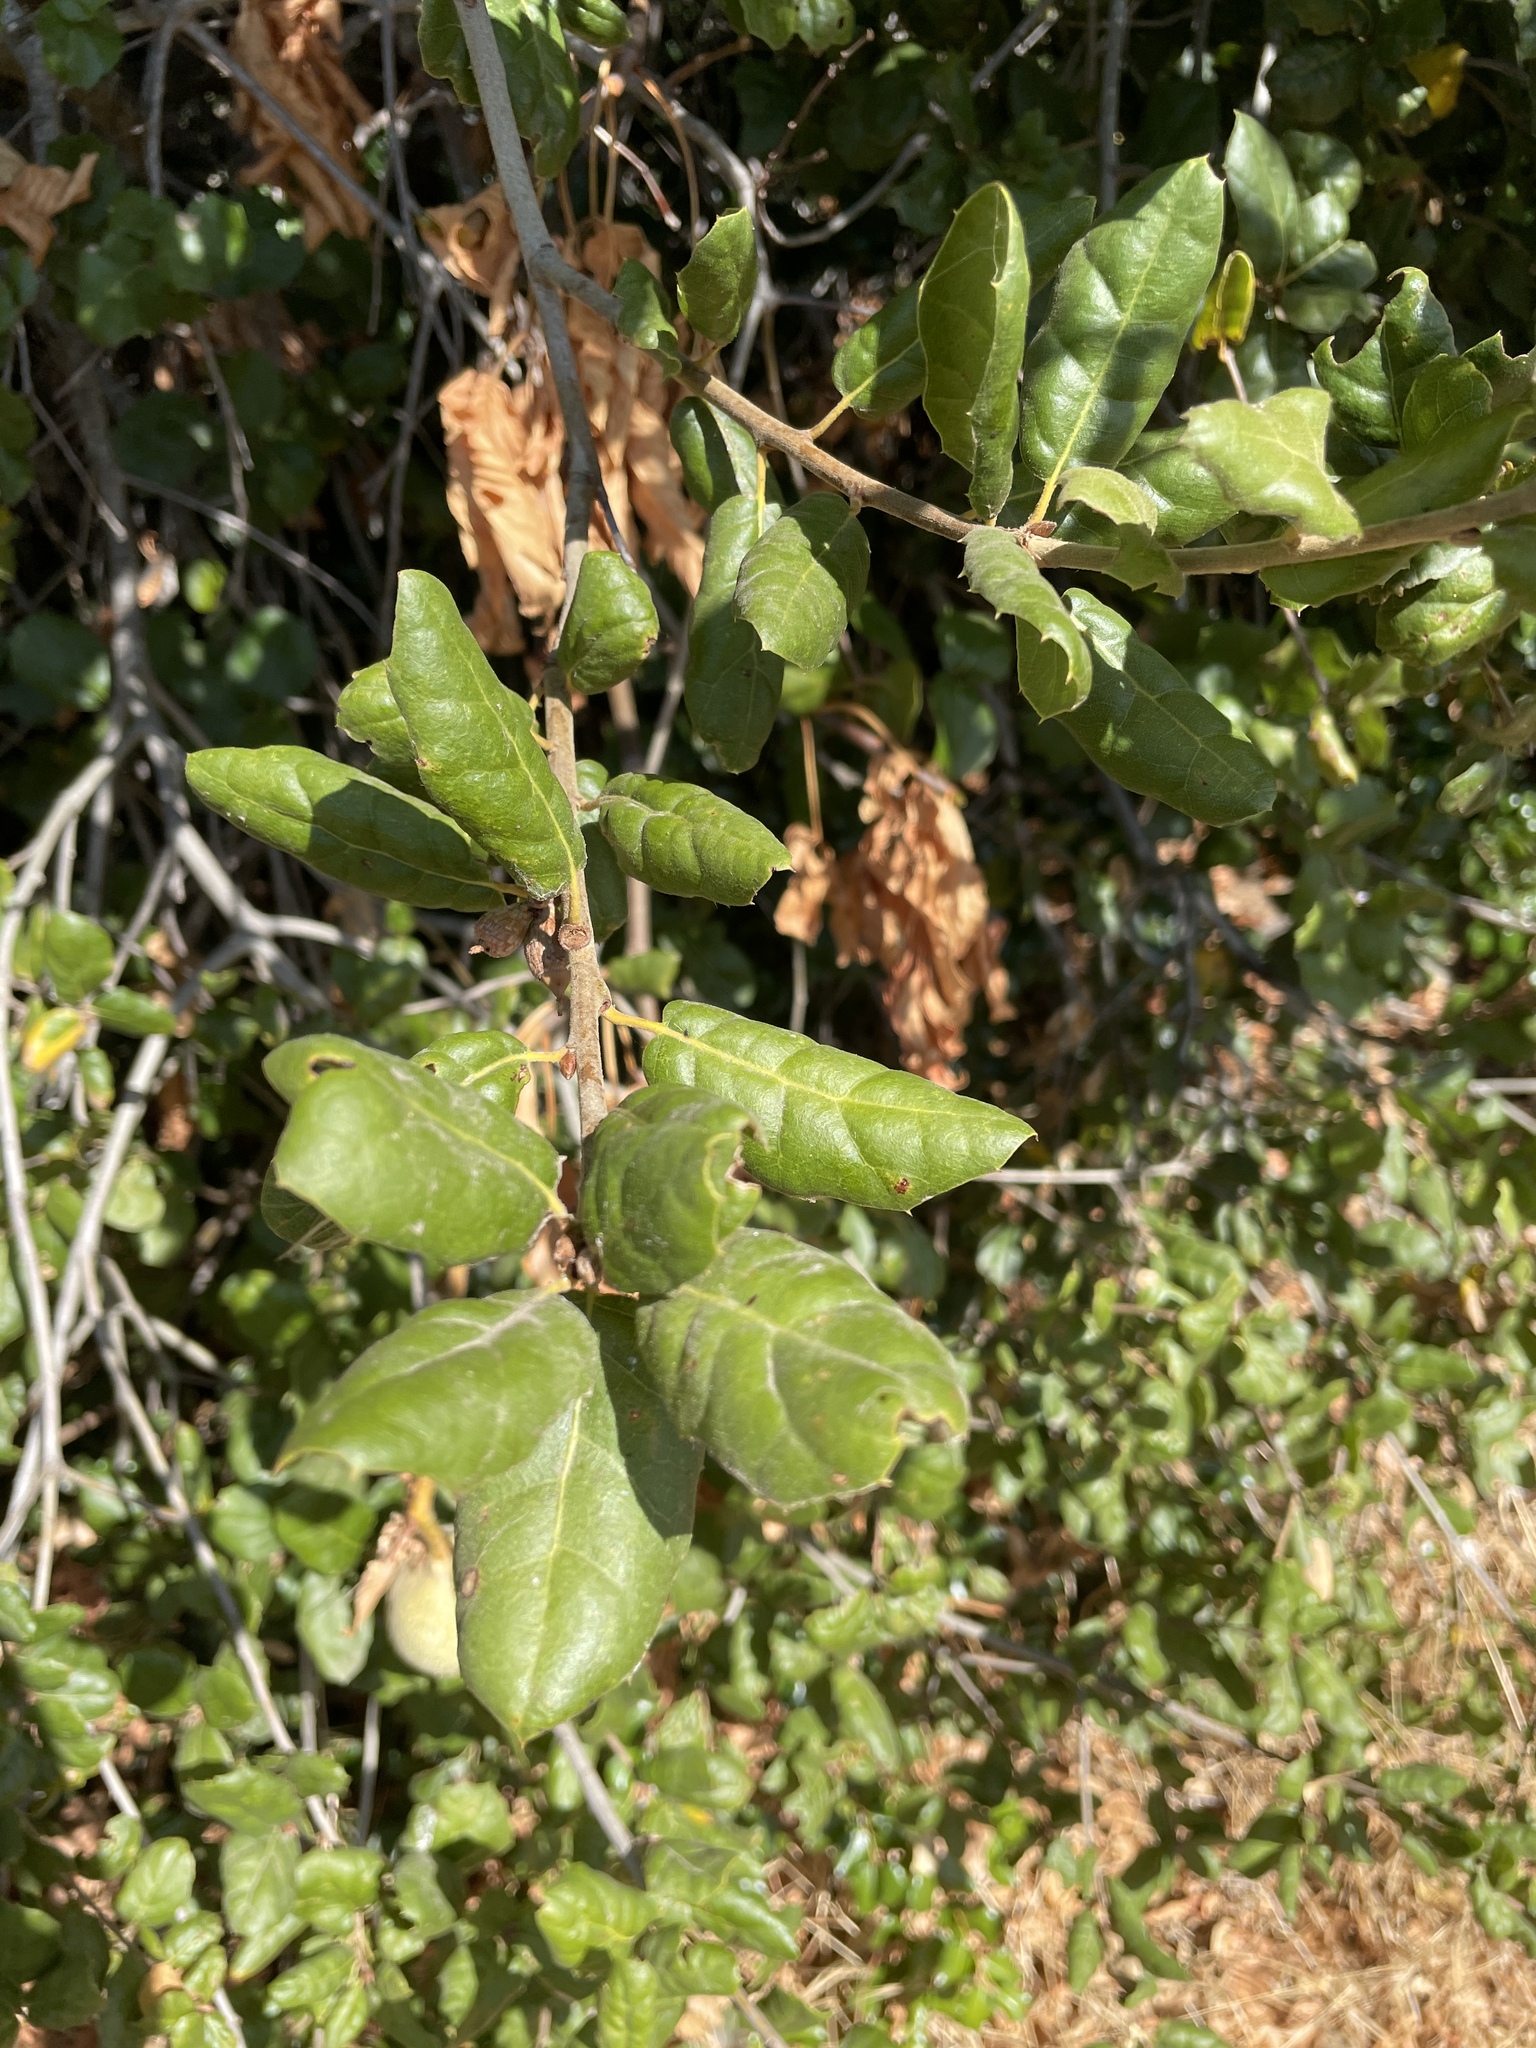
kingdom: Plantae
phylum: Tracheophyta
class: Magnoliopsida
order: Fagales
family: Fagaceae
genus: Quercus
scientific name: Quercus agrifolia
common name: California live oak
